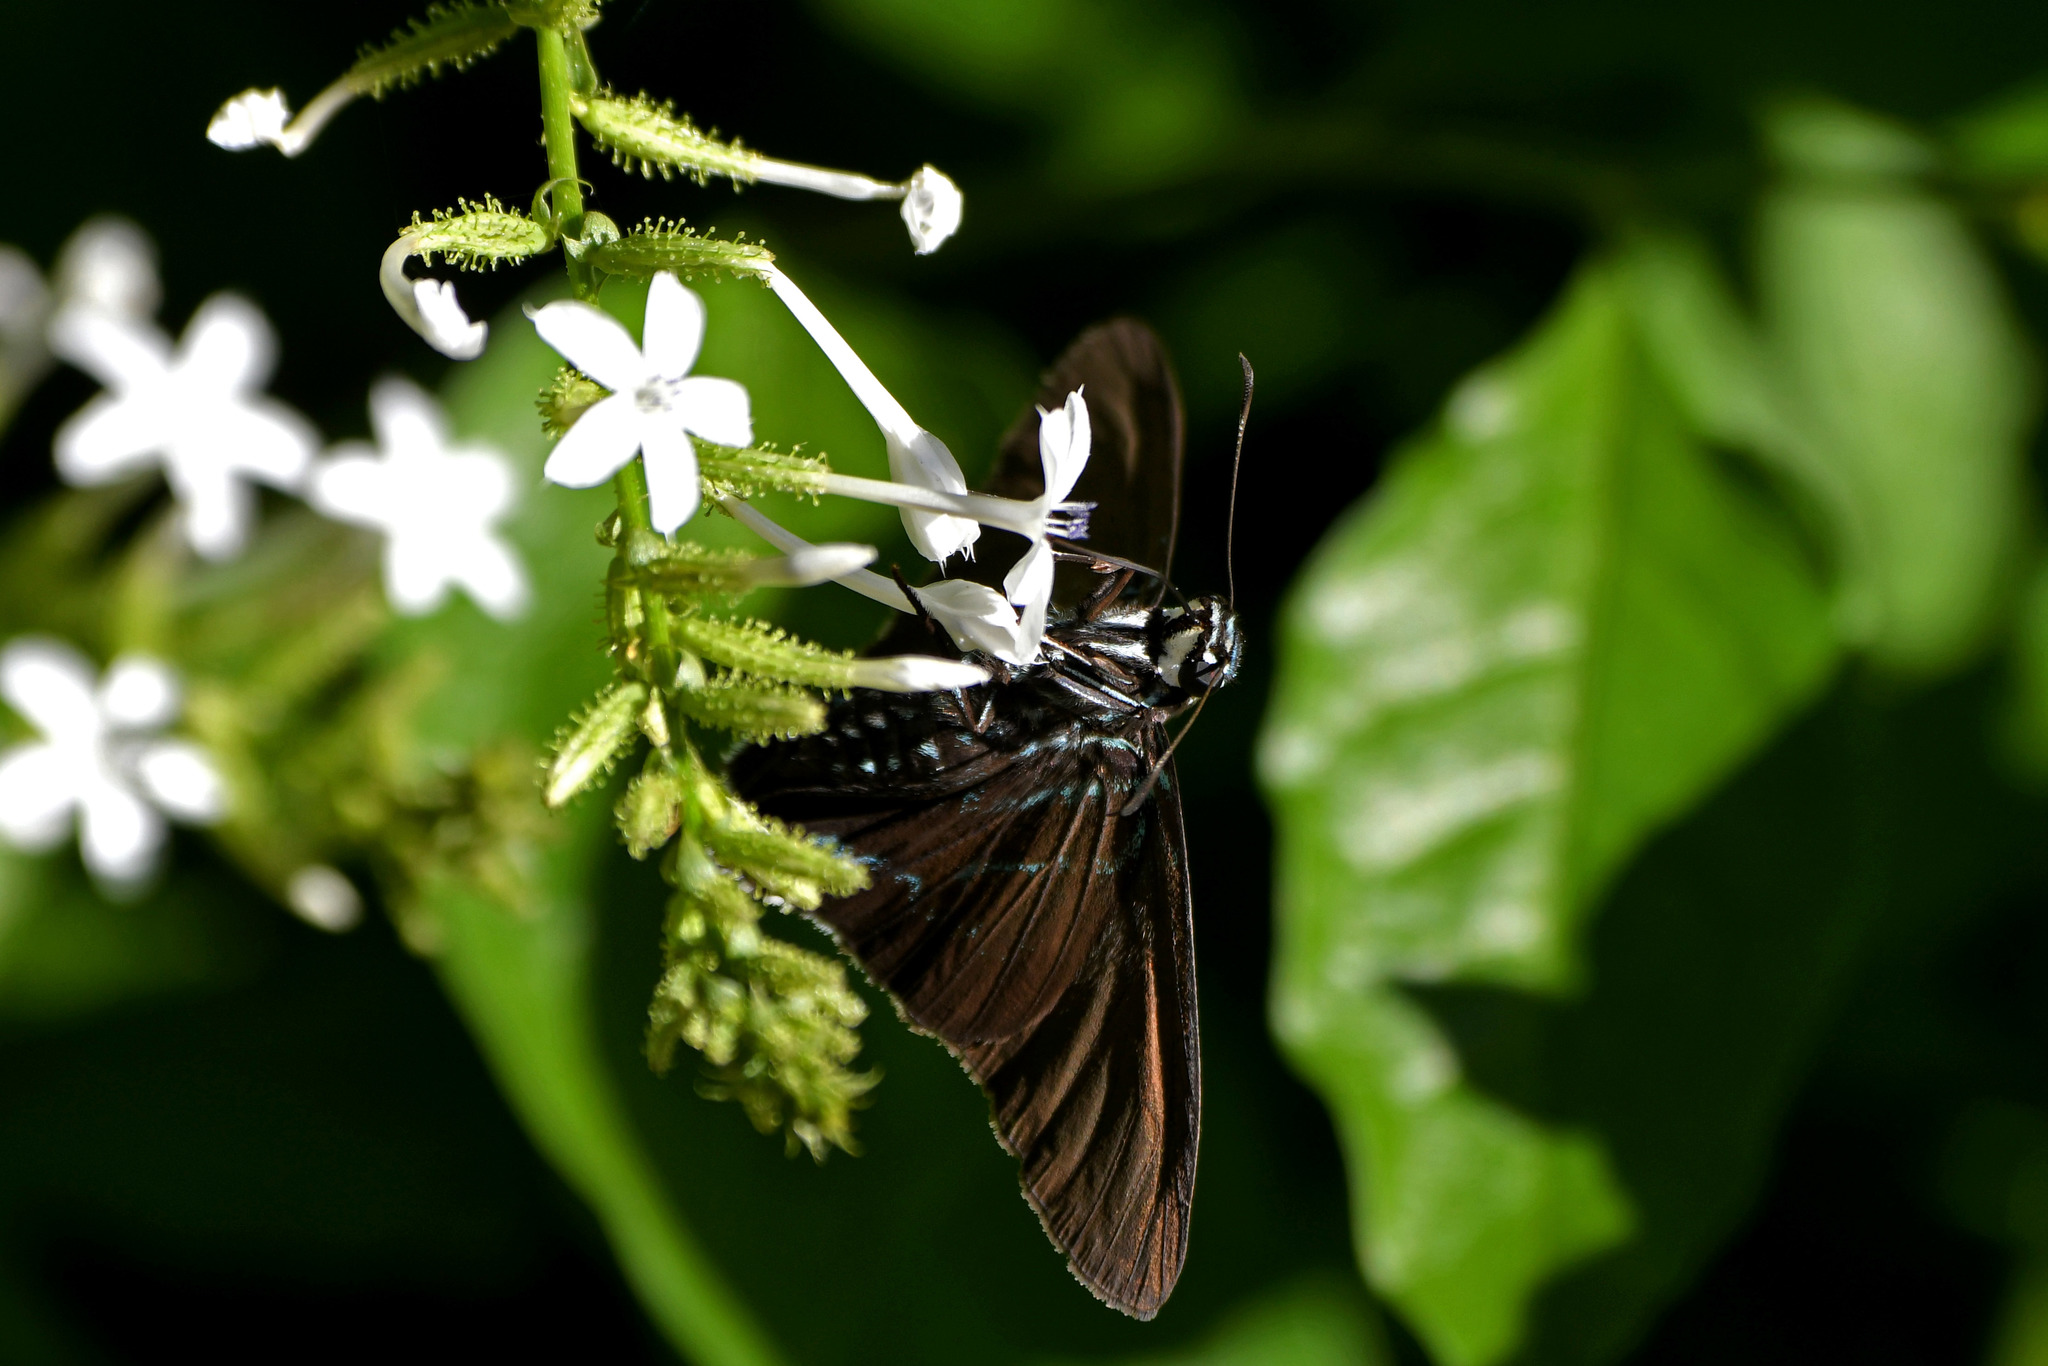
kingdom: Animalia
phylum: Arthropoda
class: Insecta
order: Lepidoptera
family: Hesperiidae
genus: Phocides
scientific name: Phocides pigmalion
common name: Mangrove skipper
